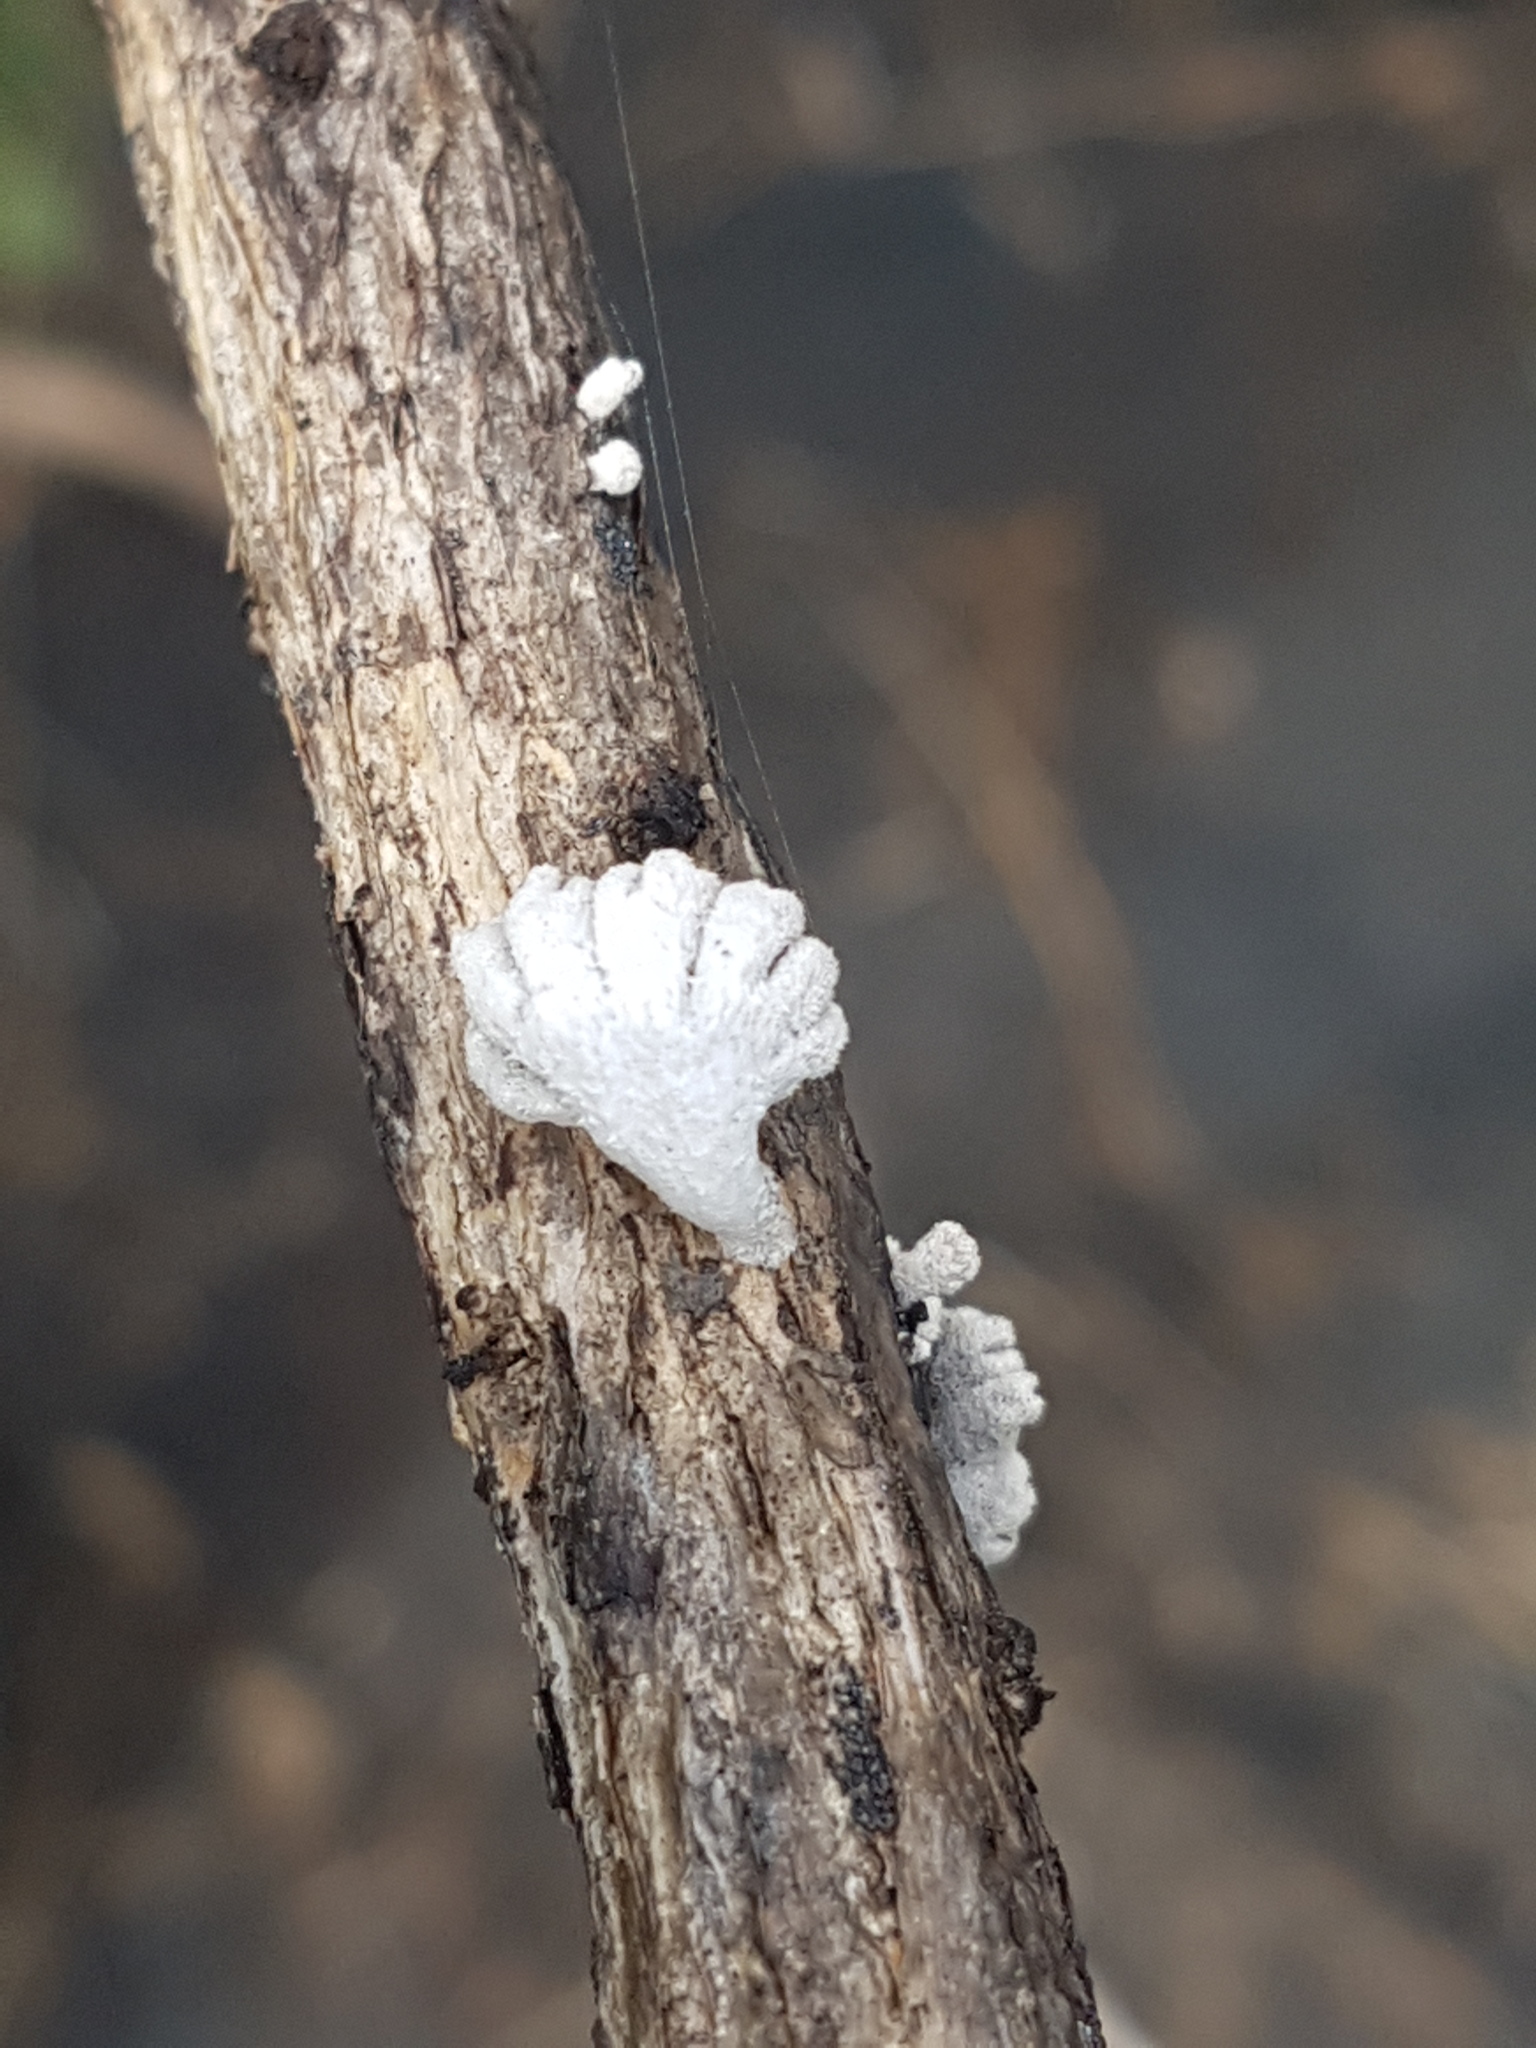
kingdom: Fungi
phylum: Basidiomycota
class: Agaricomycetes
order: Agaricales
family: Schizophyllaceae
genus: Schizophyllum
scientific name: Schizophyllum commune
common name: Common porecrust
